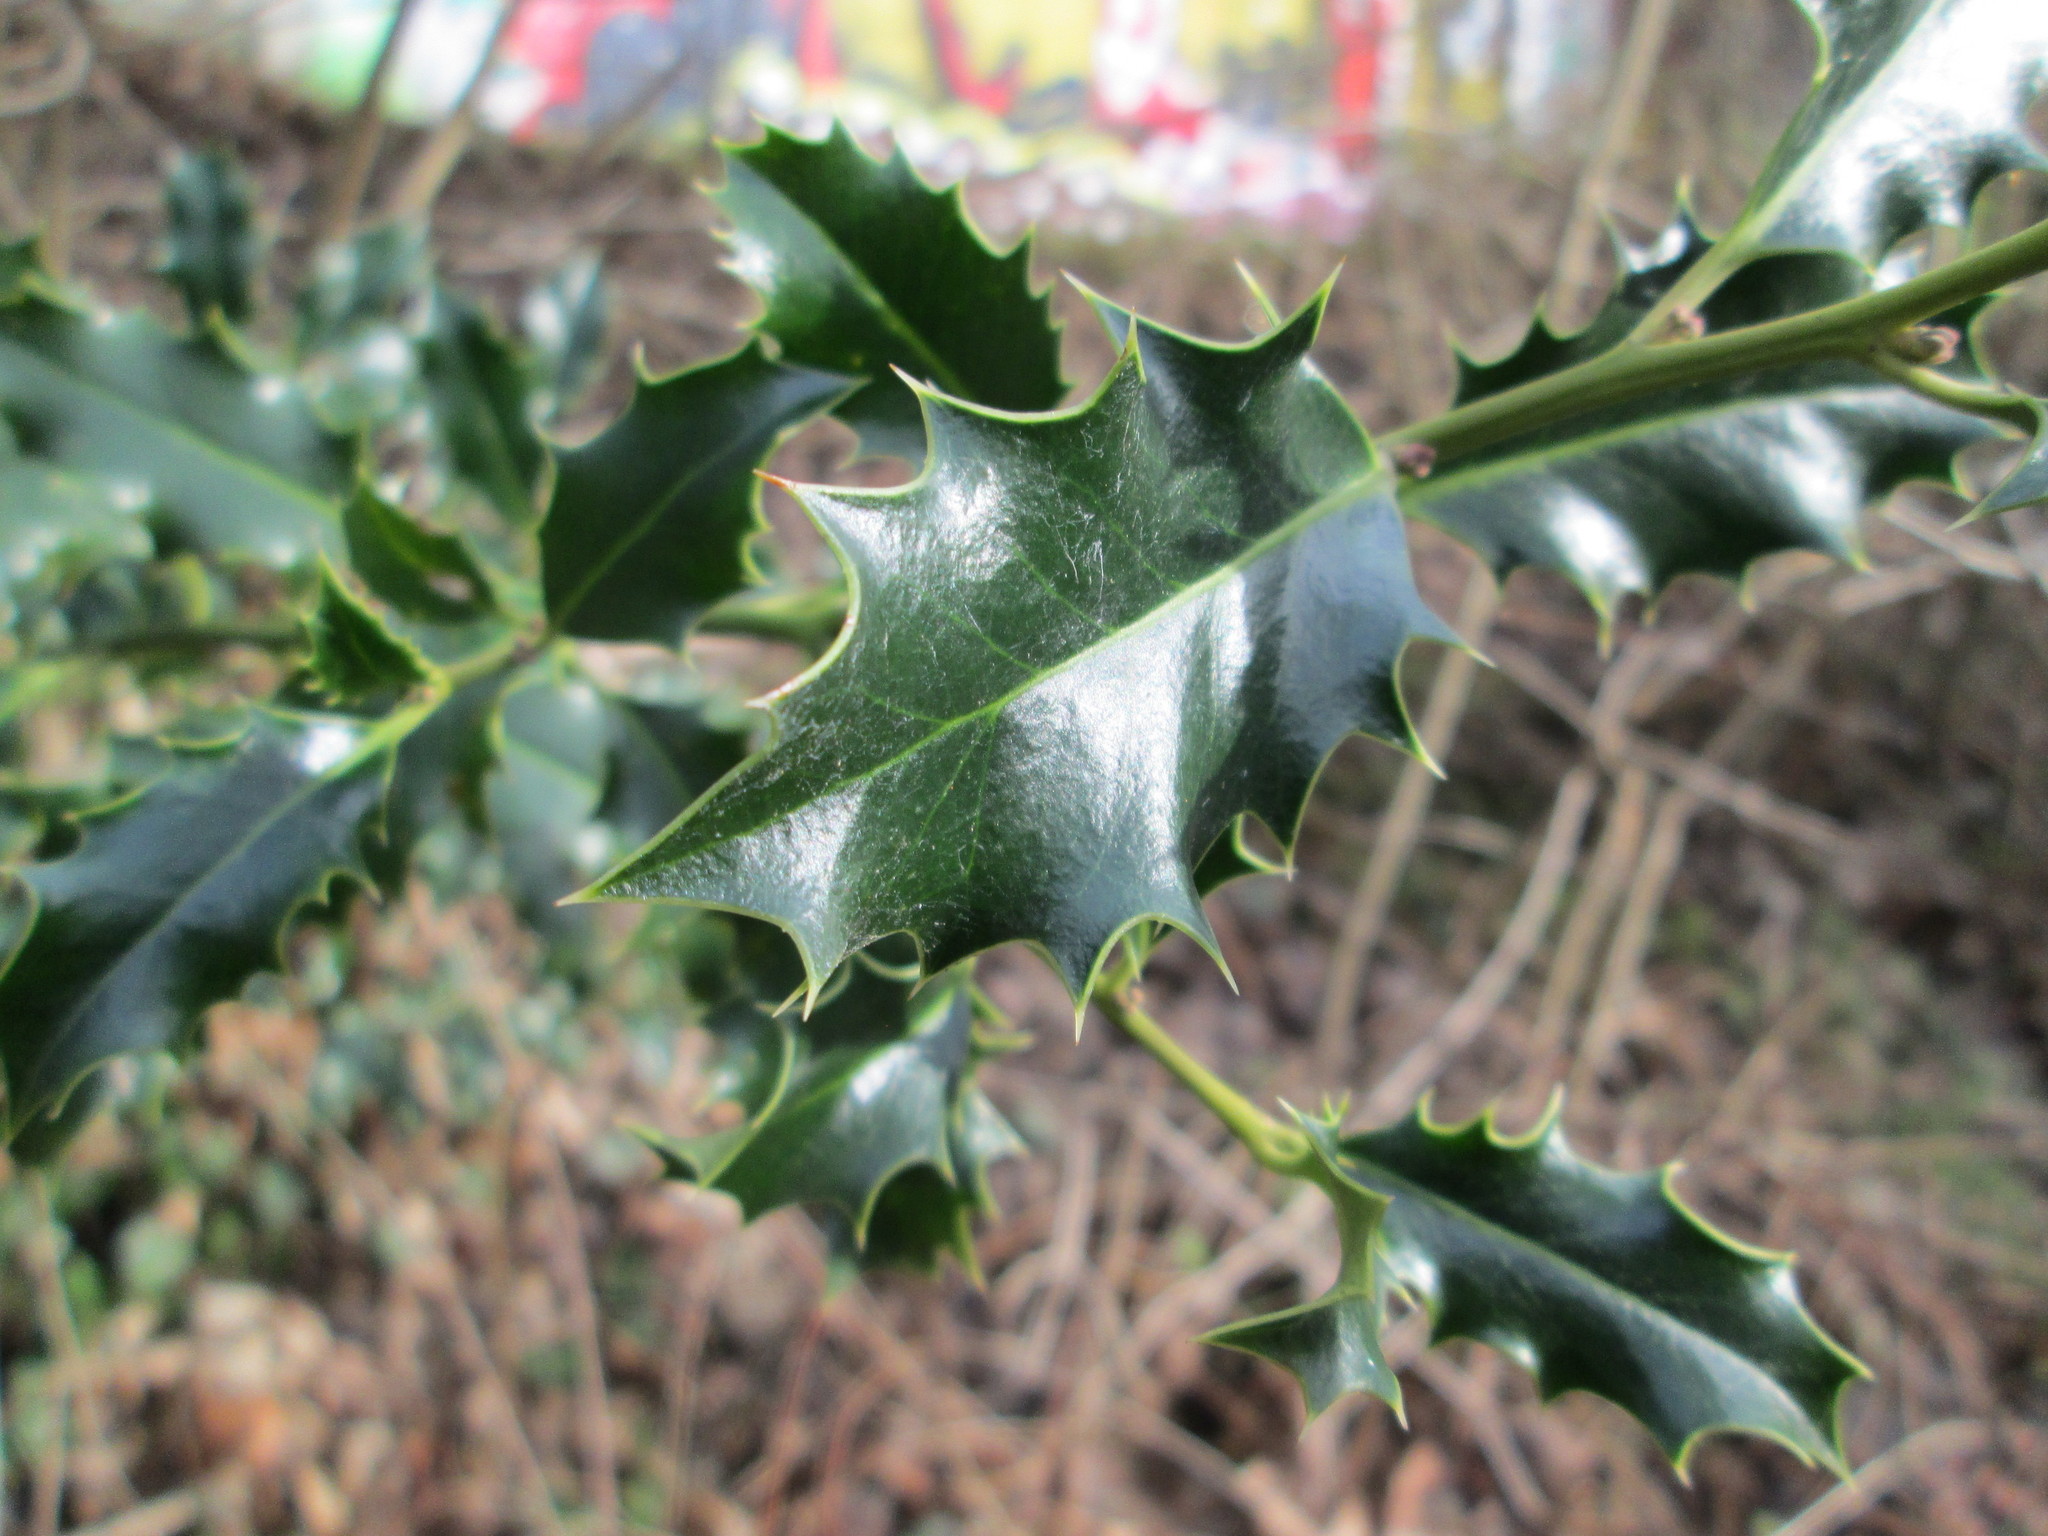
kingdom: Plantae
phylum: Tracheophyta
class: Magnoliopsida
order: Aquifoliales
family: Aquifoliaceae
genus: Ilex
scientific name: Ilex aquifolium
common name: English holly
